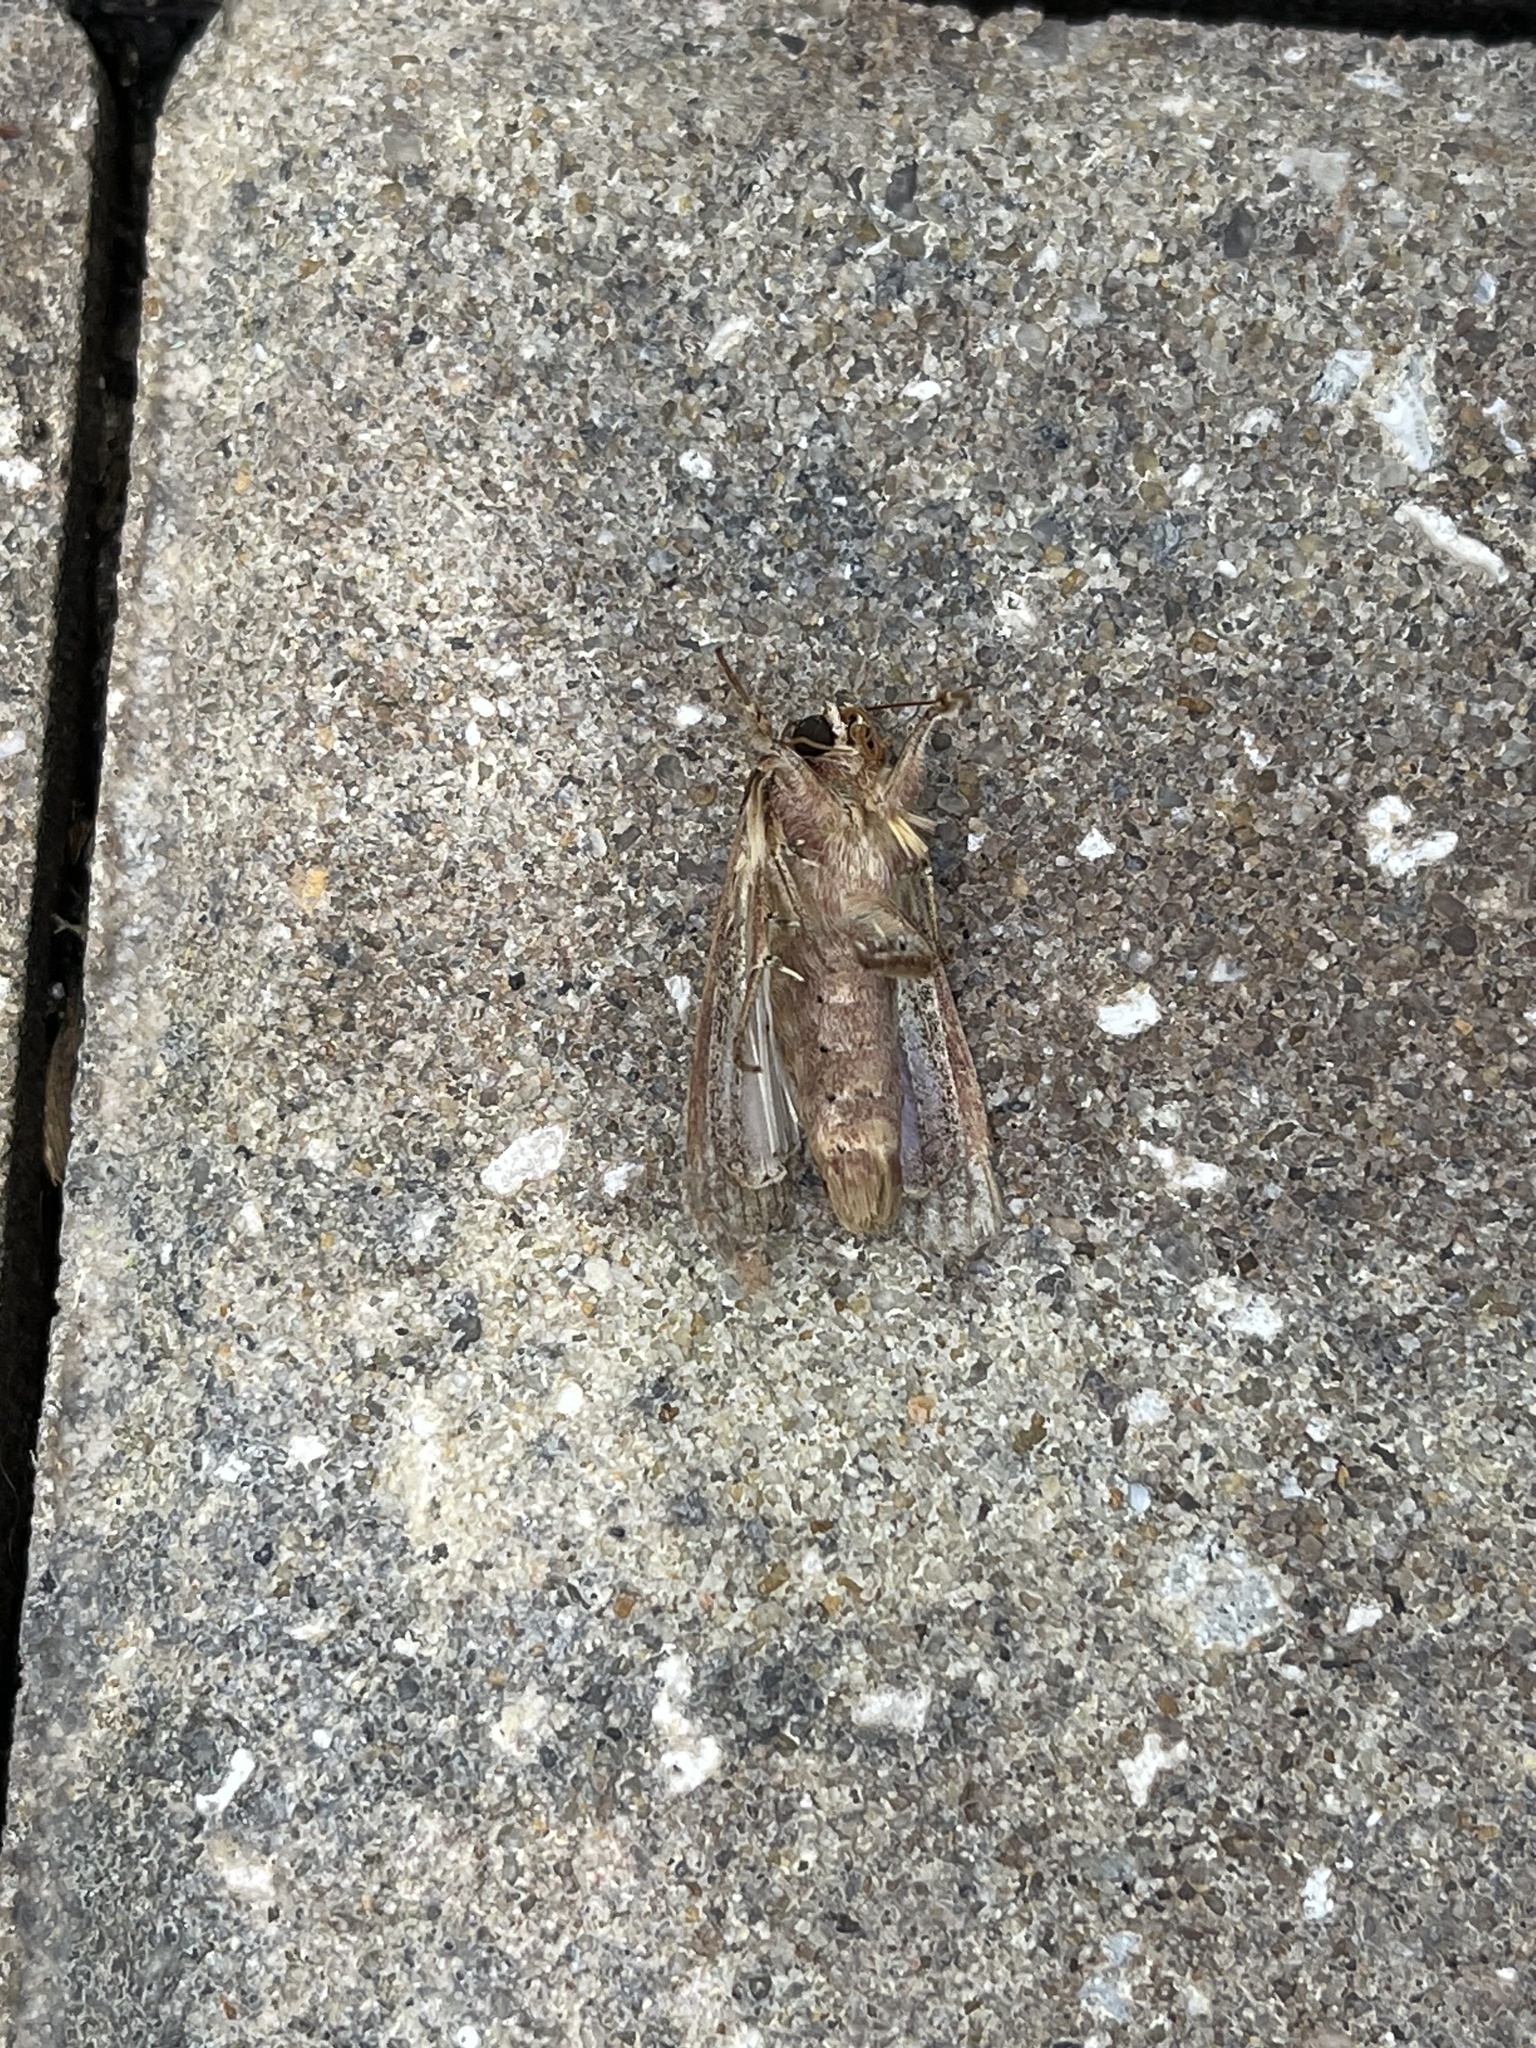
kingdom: Animalia
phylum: Arthropoda
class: Insecta
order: Lepidoptera
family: Noctuidae
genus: Spodoptera
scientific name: Spodoptera dolichos
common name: Sweetpotato armyworm
